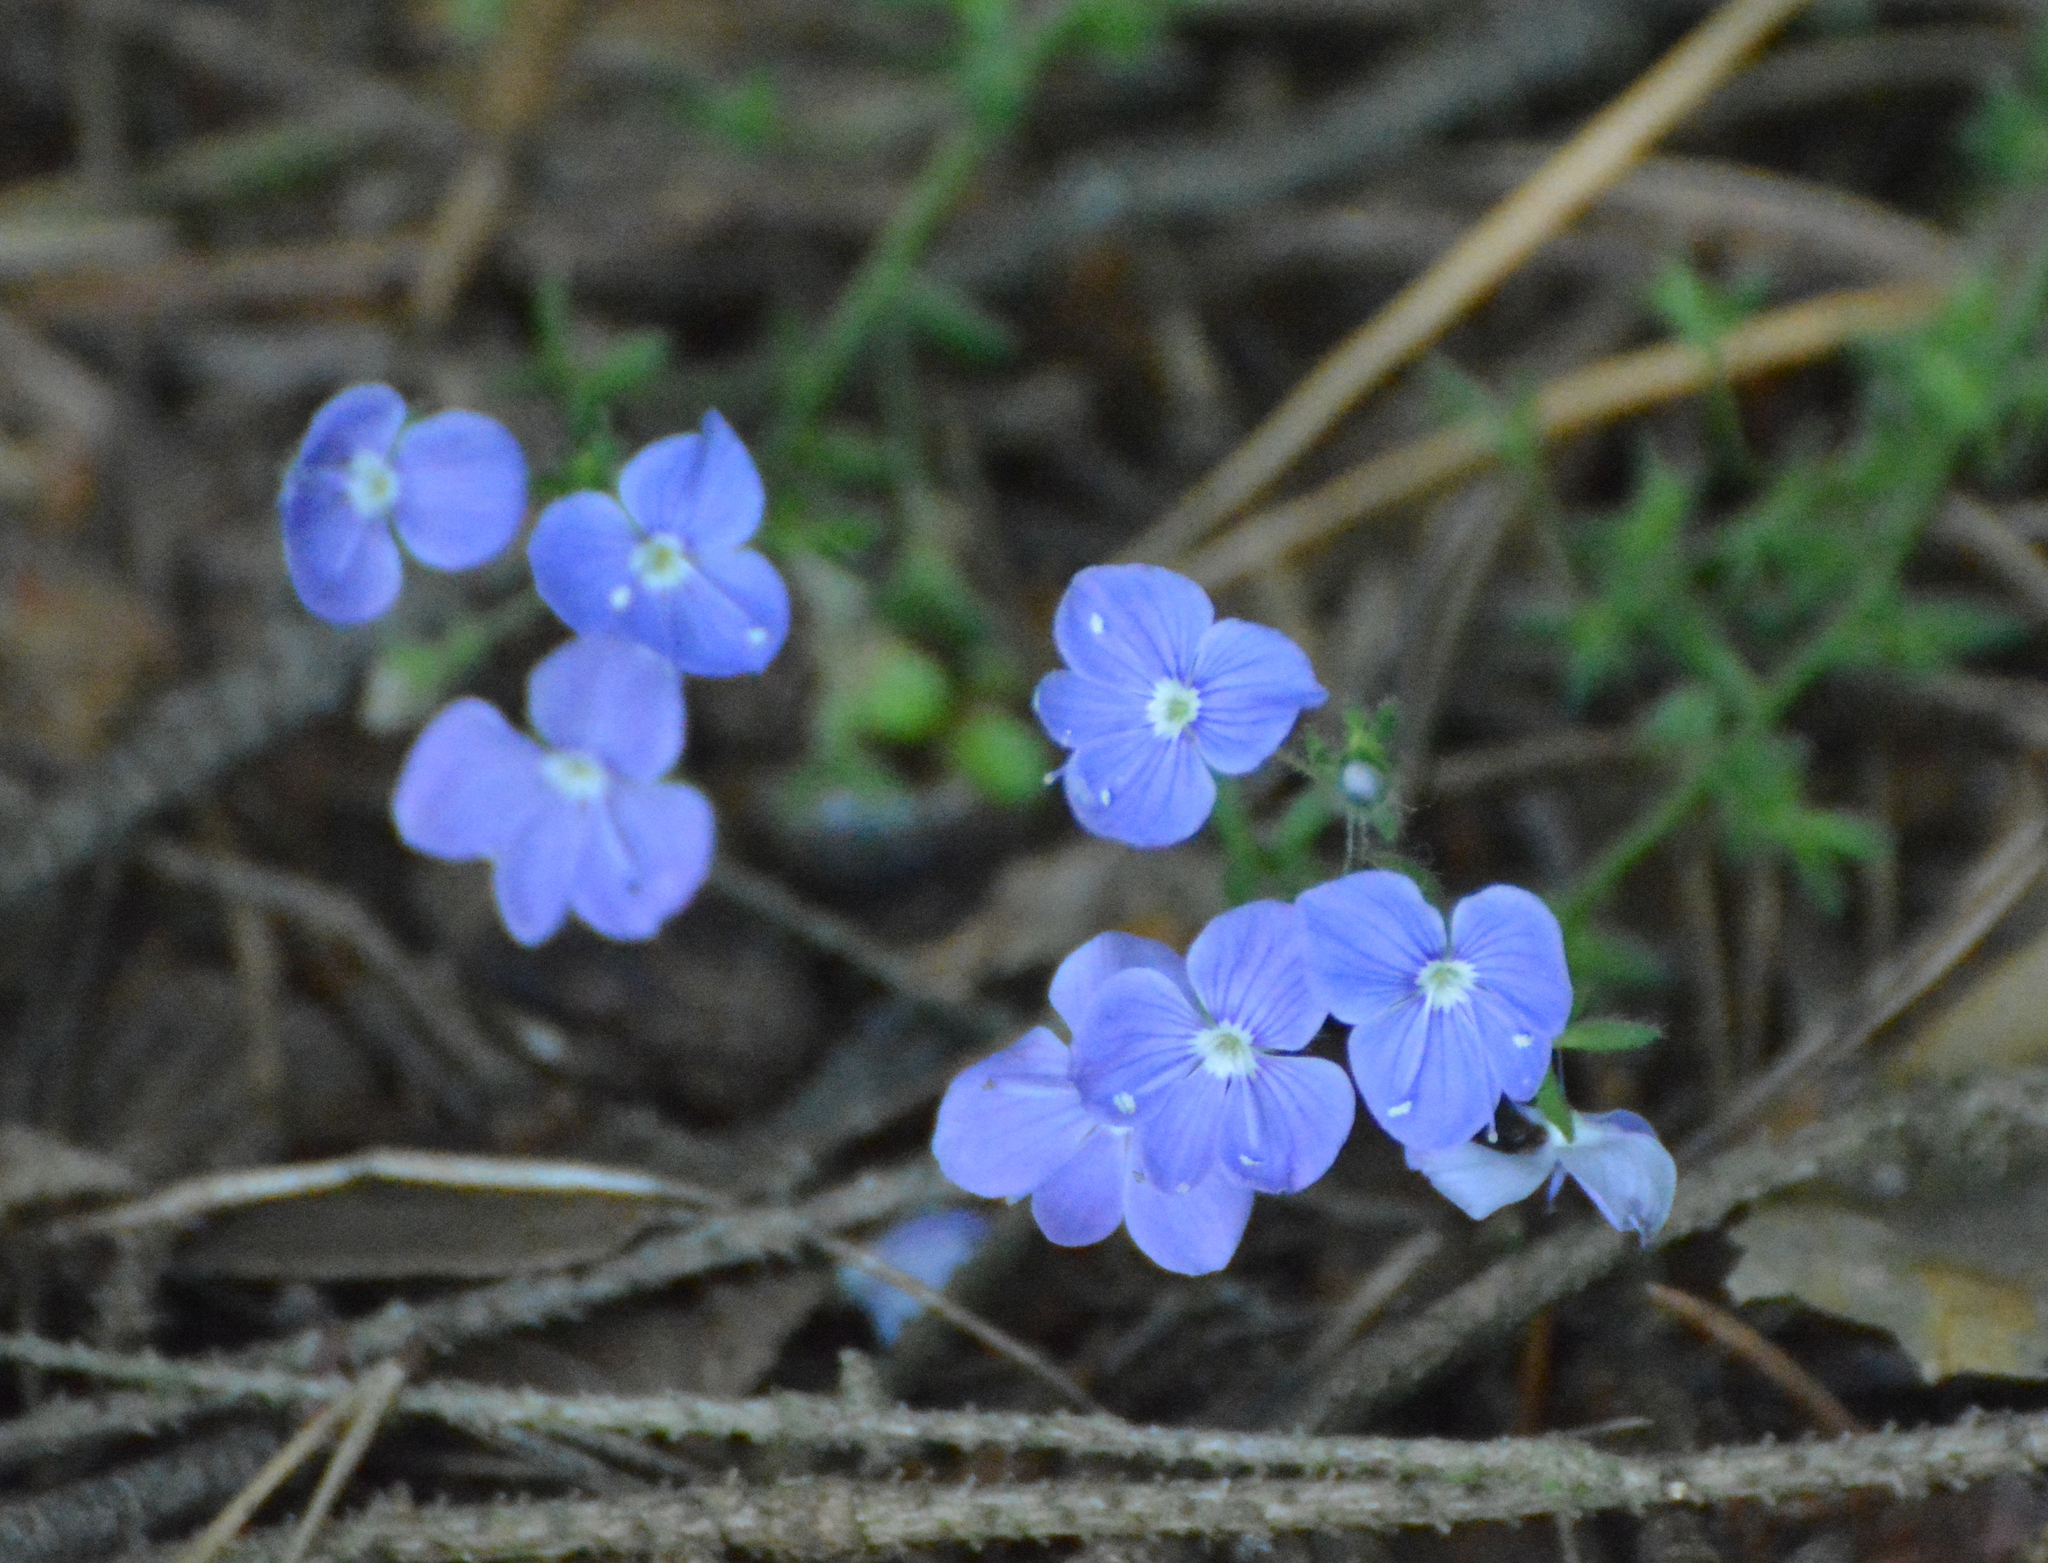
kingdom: Plantae
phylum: Tracheophyta
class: Magnoliopsida
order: Lamiales
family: Plantaginaceae
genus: Veronica
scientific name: Veronica chamaedrys
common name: Germander speedwell
